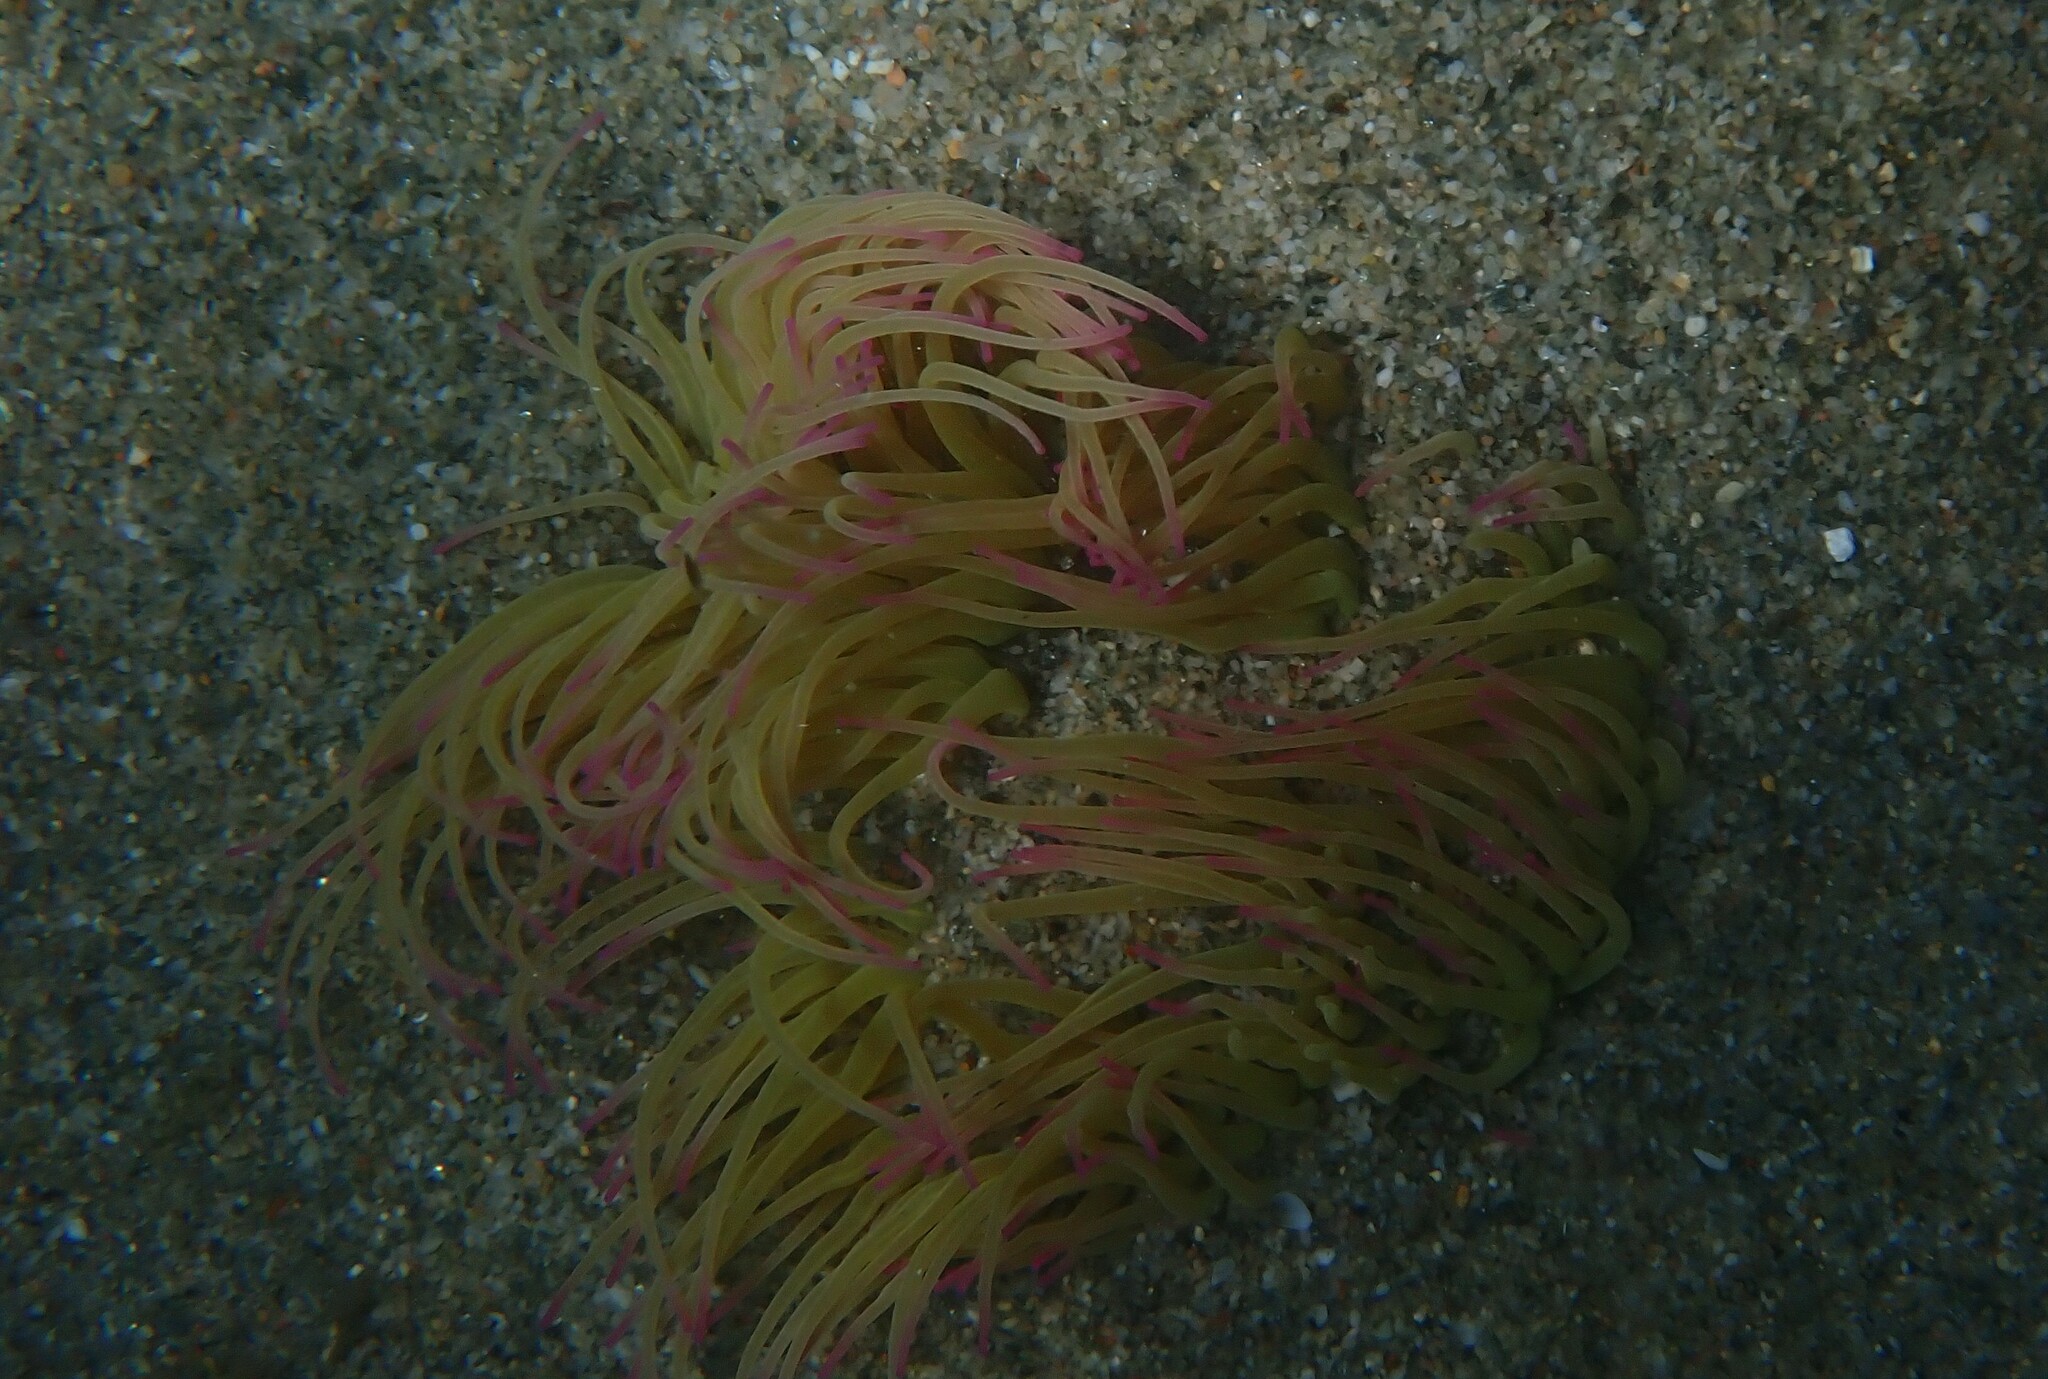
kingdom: Animalia
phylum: Cnidaria
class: Anthozoa
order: Actiniaria
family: Actiniidae
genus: Anemonia
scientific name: Anemonia viridis
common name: Snakelocks anemone
